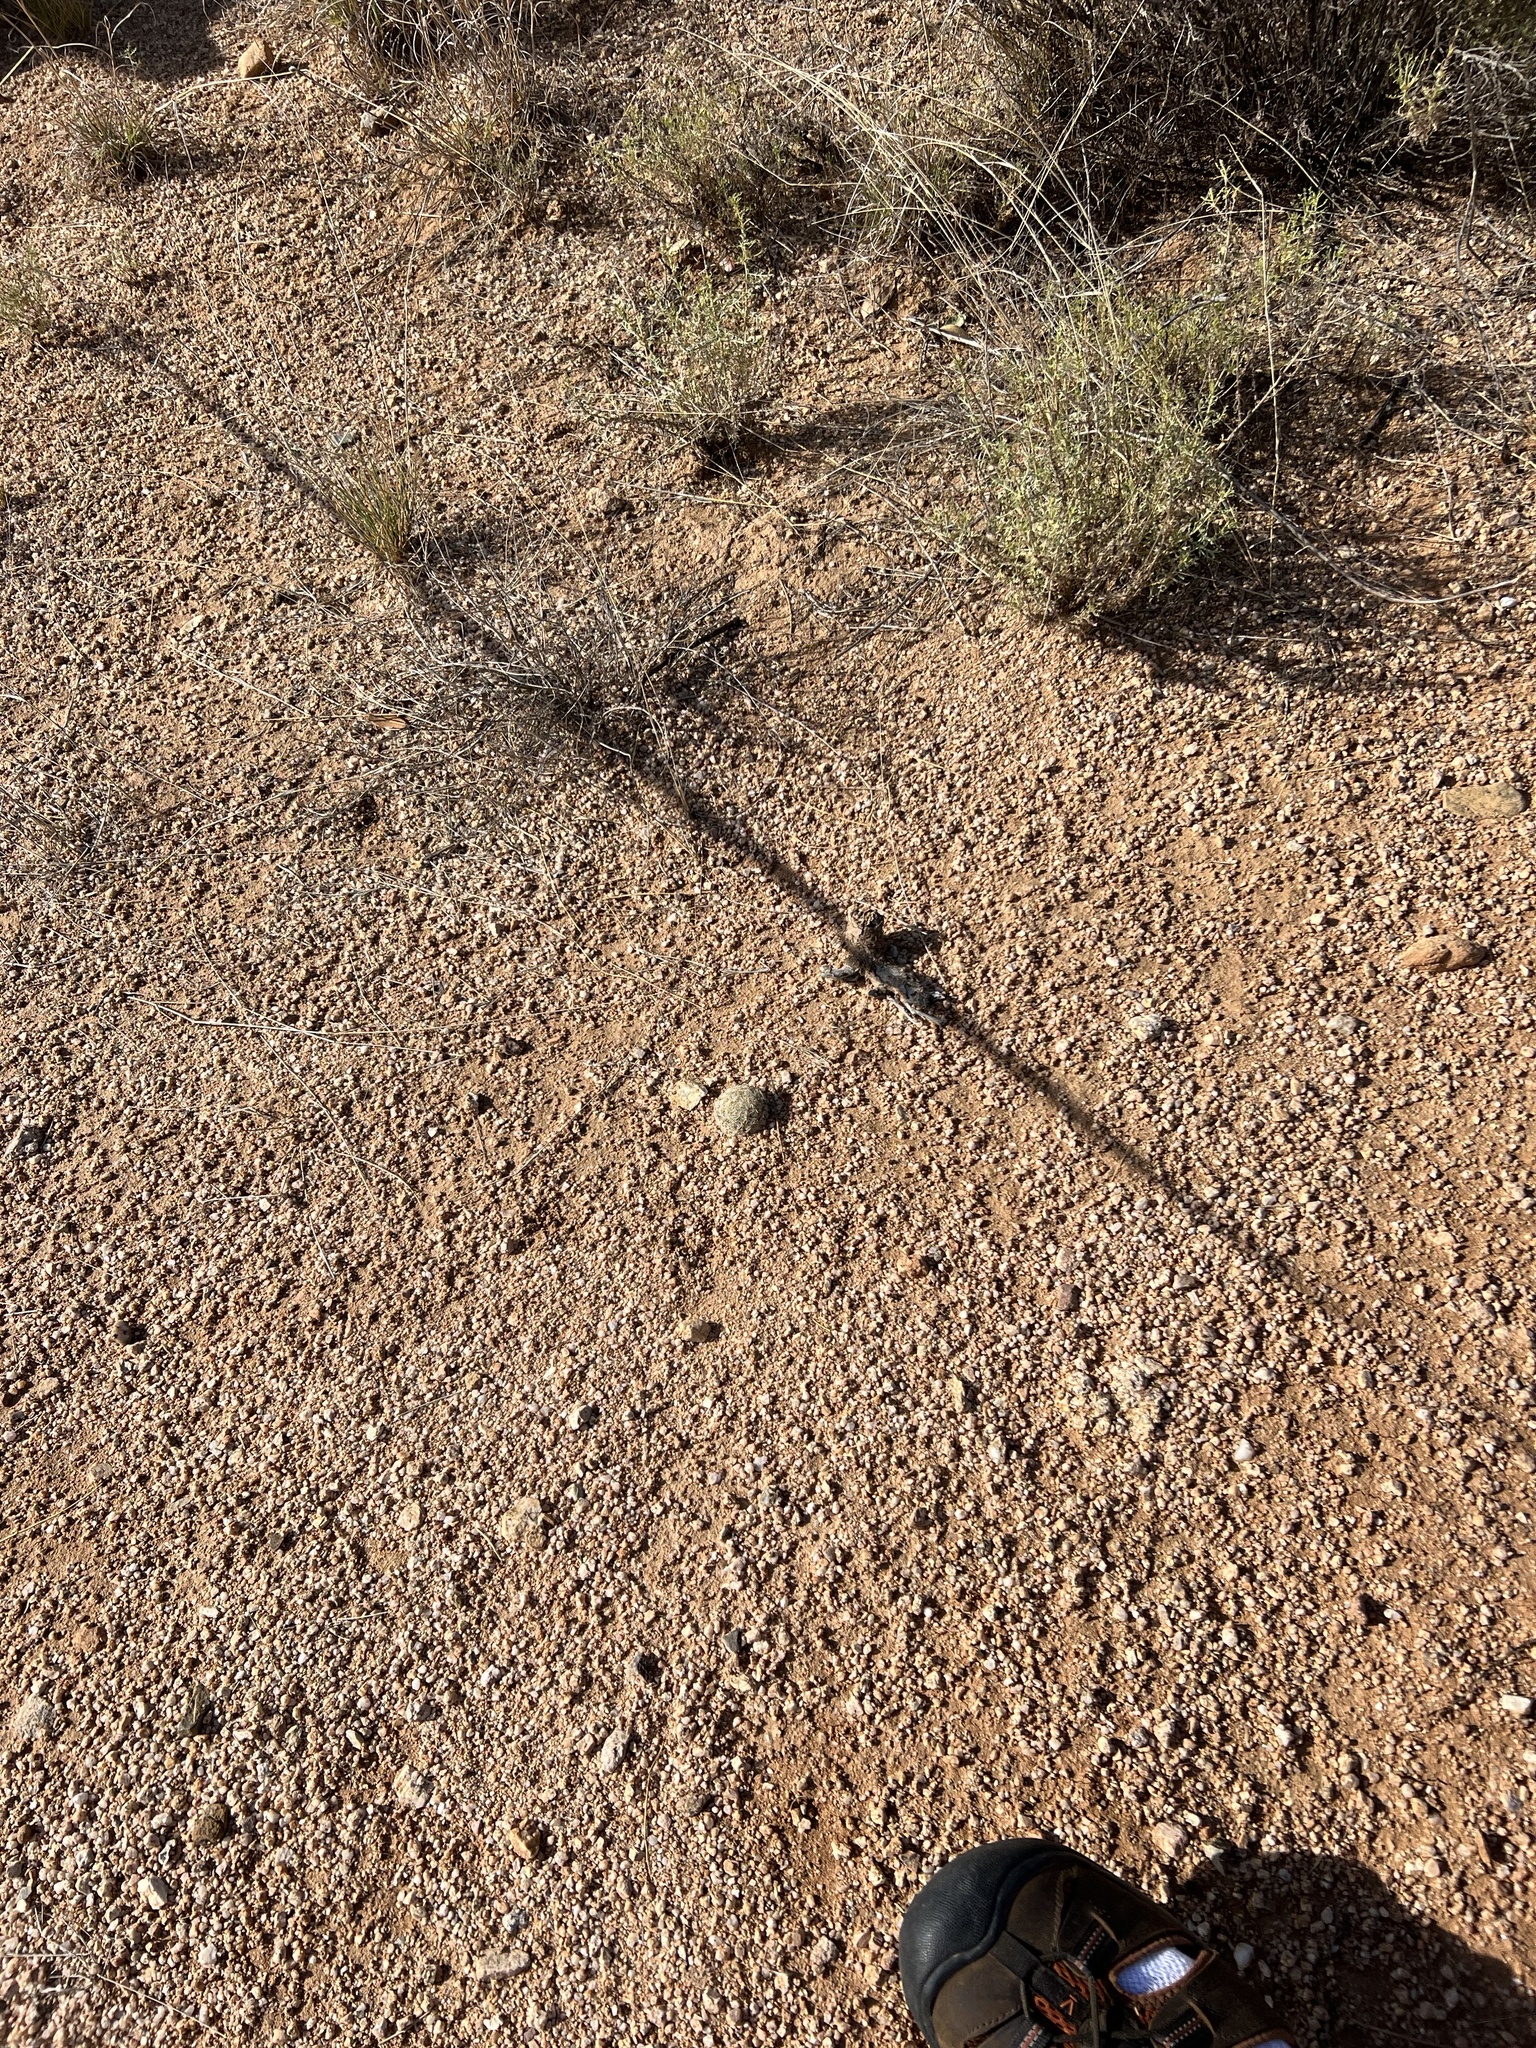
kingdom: Plantae
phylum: Tracheophyta
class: Magnoliopsida
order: Caryophyllales
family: Cactaceae
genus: Pelecyphora
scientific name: Pelecyphora vivipara
